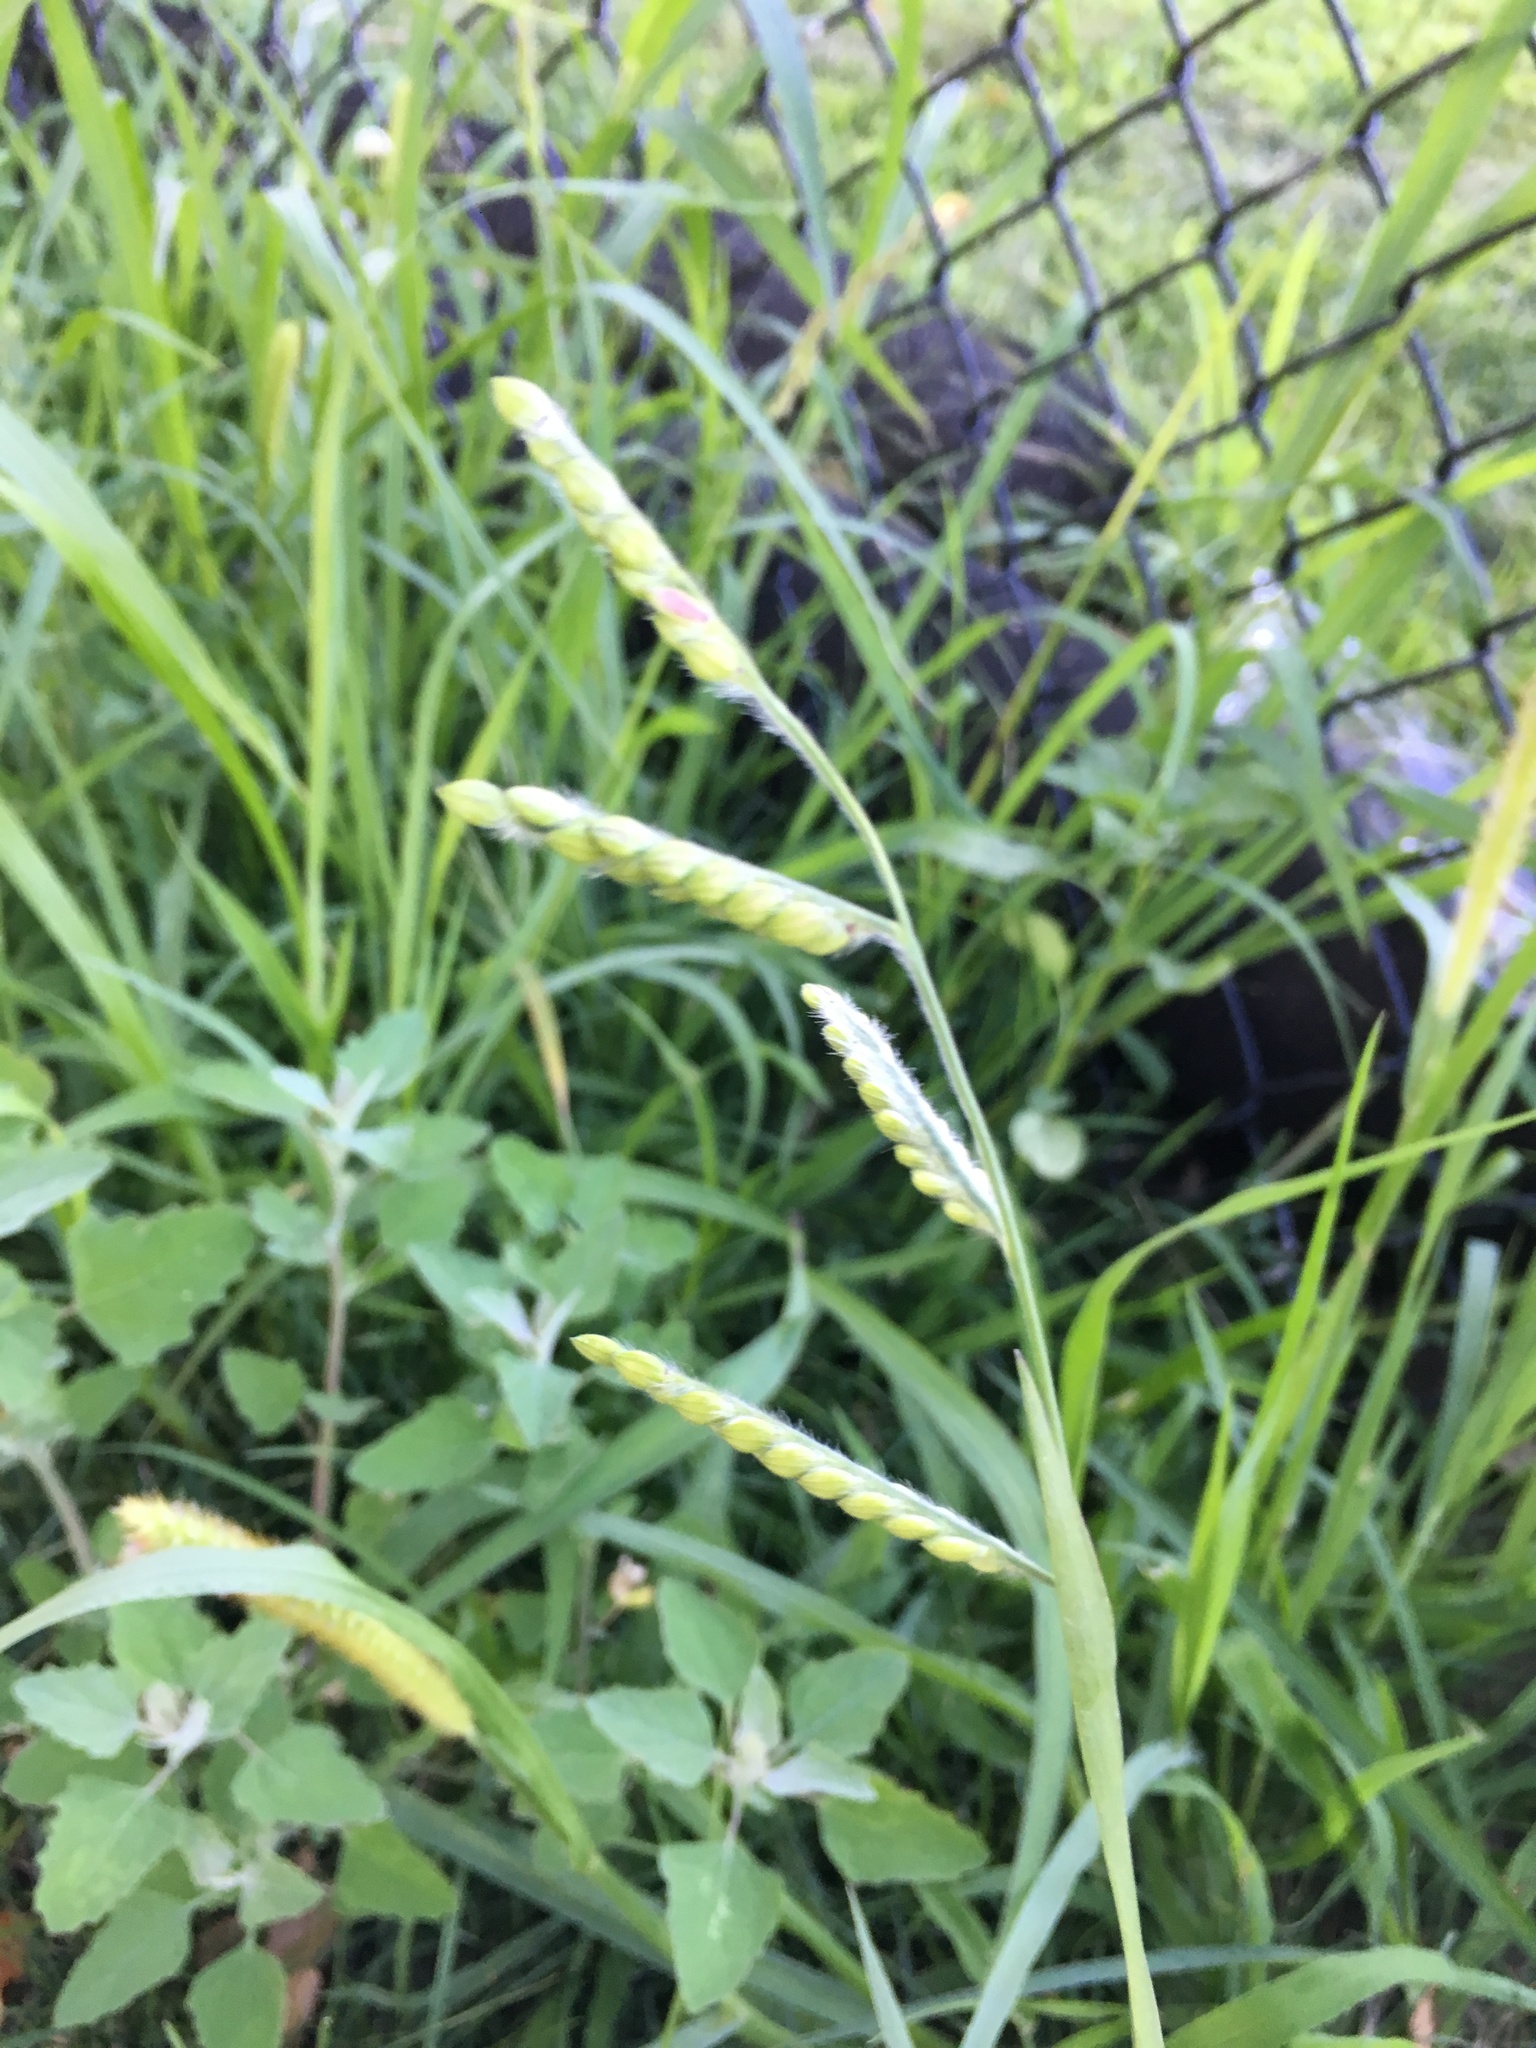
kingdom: Plantae
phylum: Tracheophyta
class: Liliopsida
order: Poales
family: Poaceae
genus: Eriochloa
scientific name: Eriochloa villosa
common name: Hairy cupgrass
